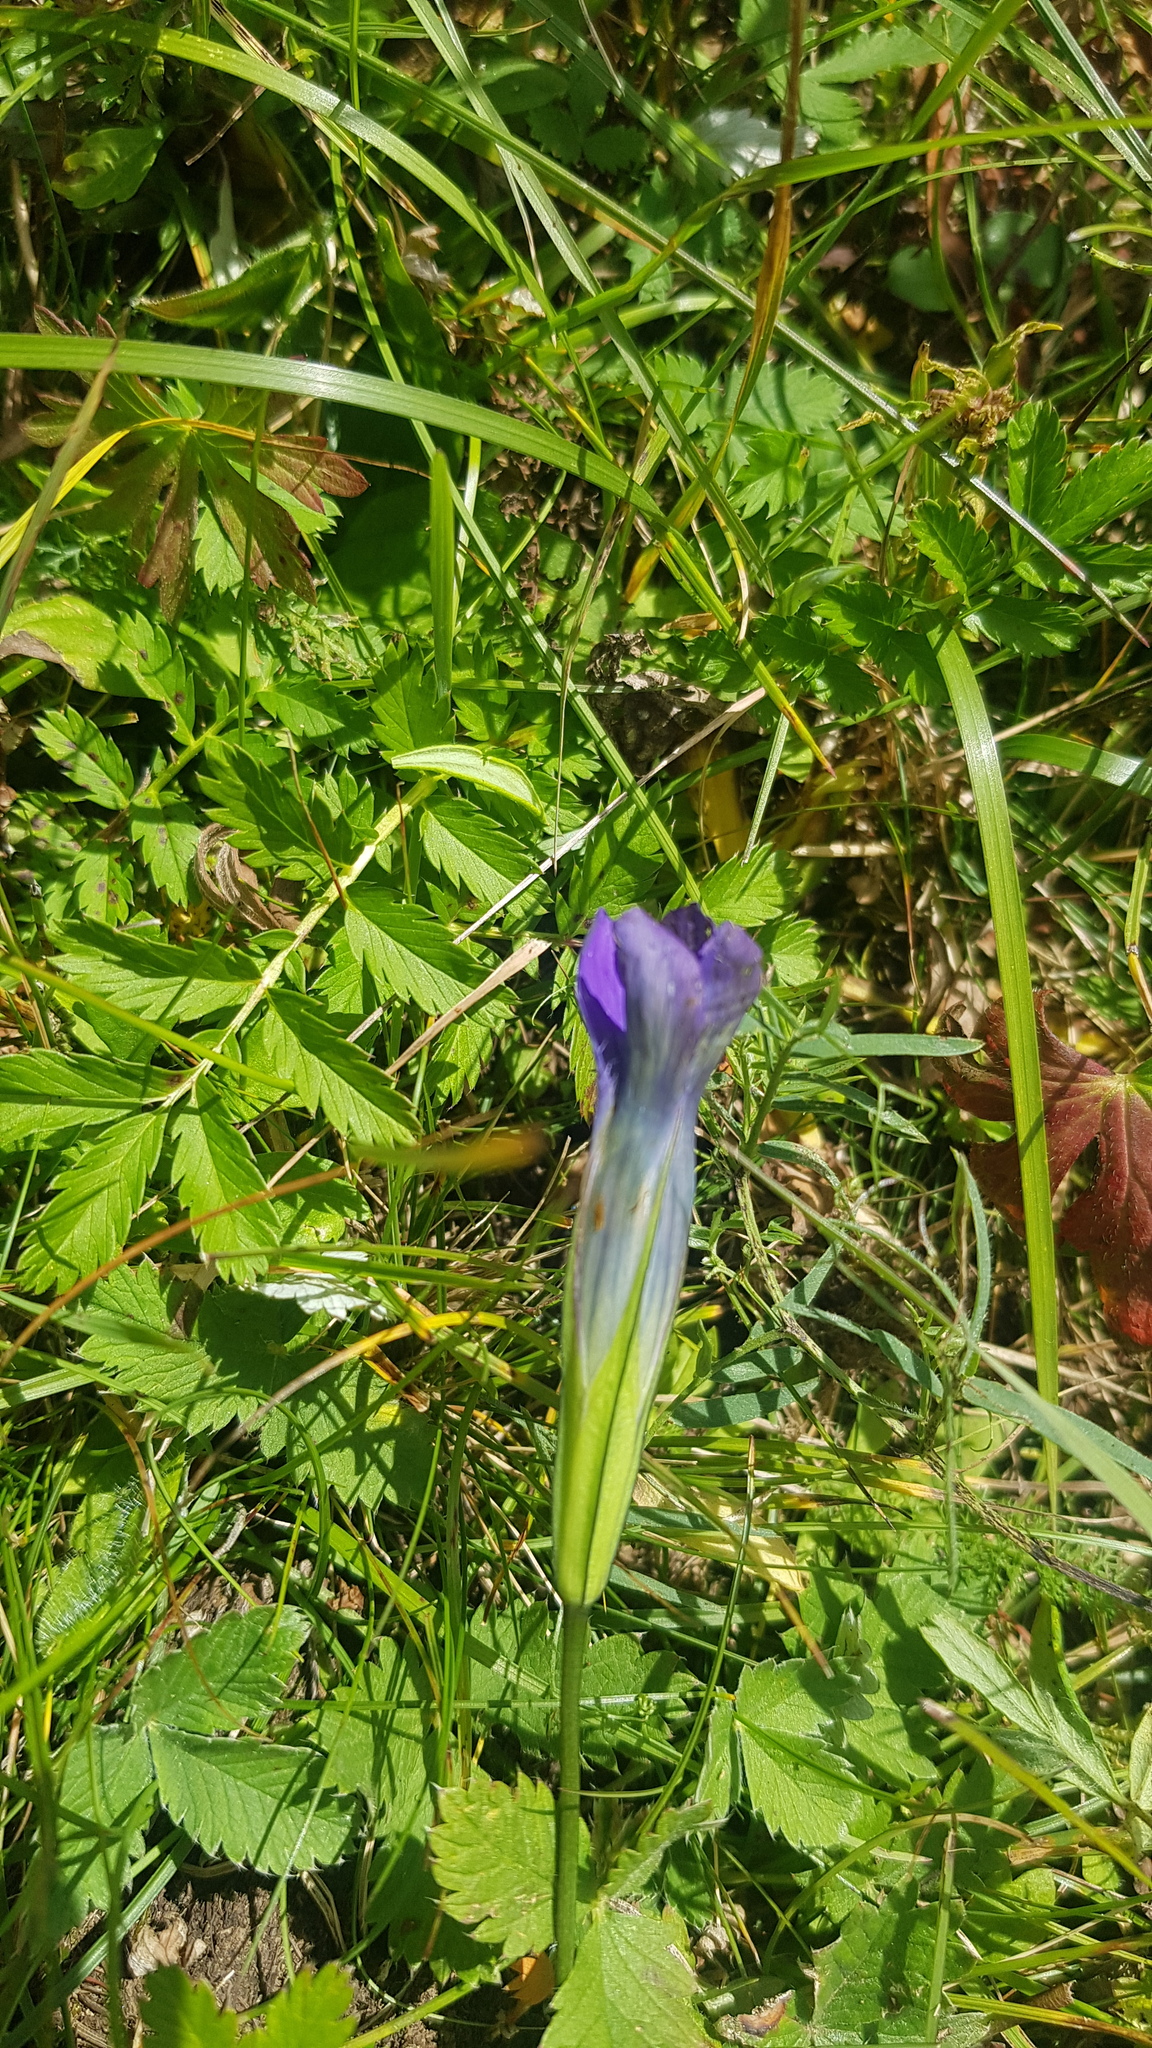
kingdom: Plantae
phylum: Tracheophyta
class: Magnoliopsida
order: Gentianales
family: Gentianaceae
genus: Gentianopsis
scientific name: Gentianopsis barbata
